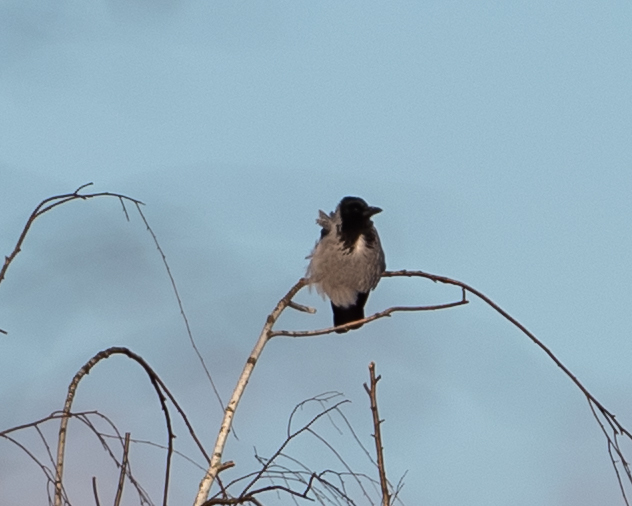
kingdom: Animalia
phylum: Chordata
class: Aves
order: Passeriformes
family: Corvidae
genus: Corvus
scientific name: Corvus cornix
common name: Hooded crow
